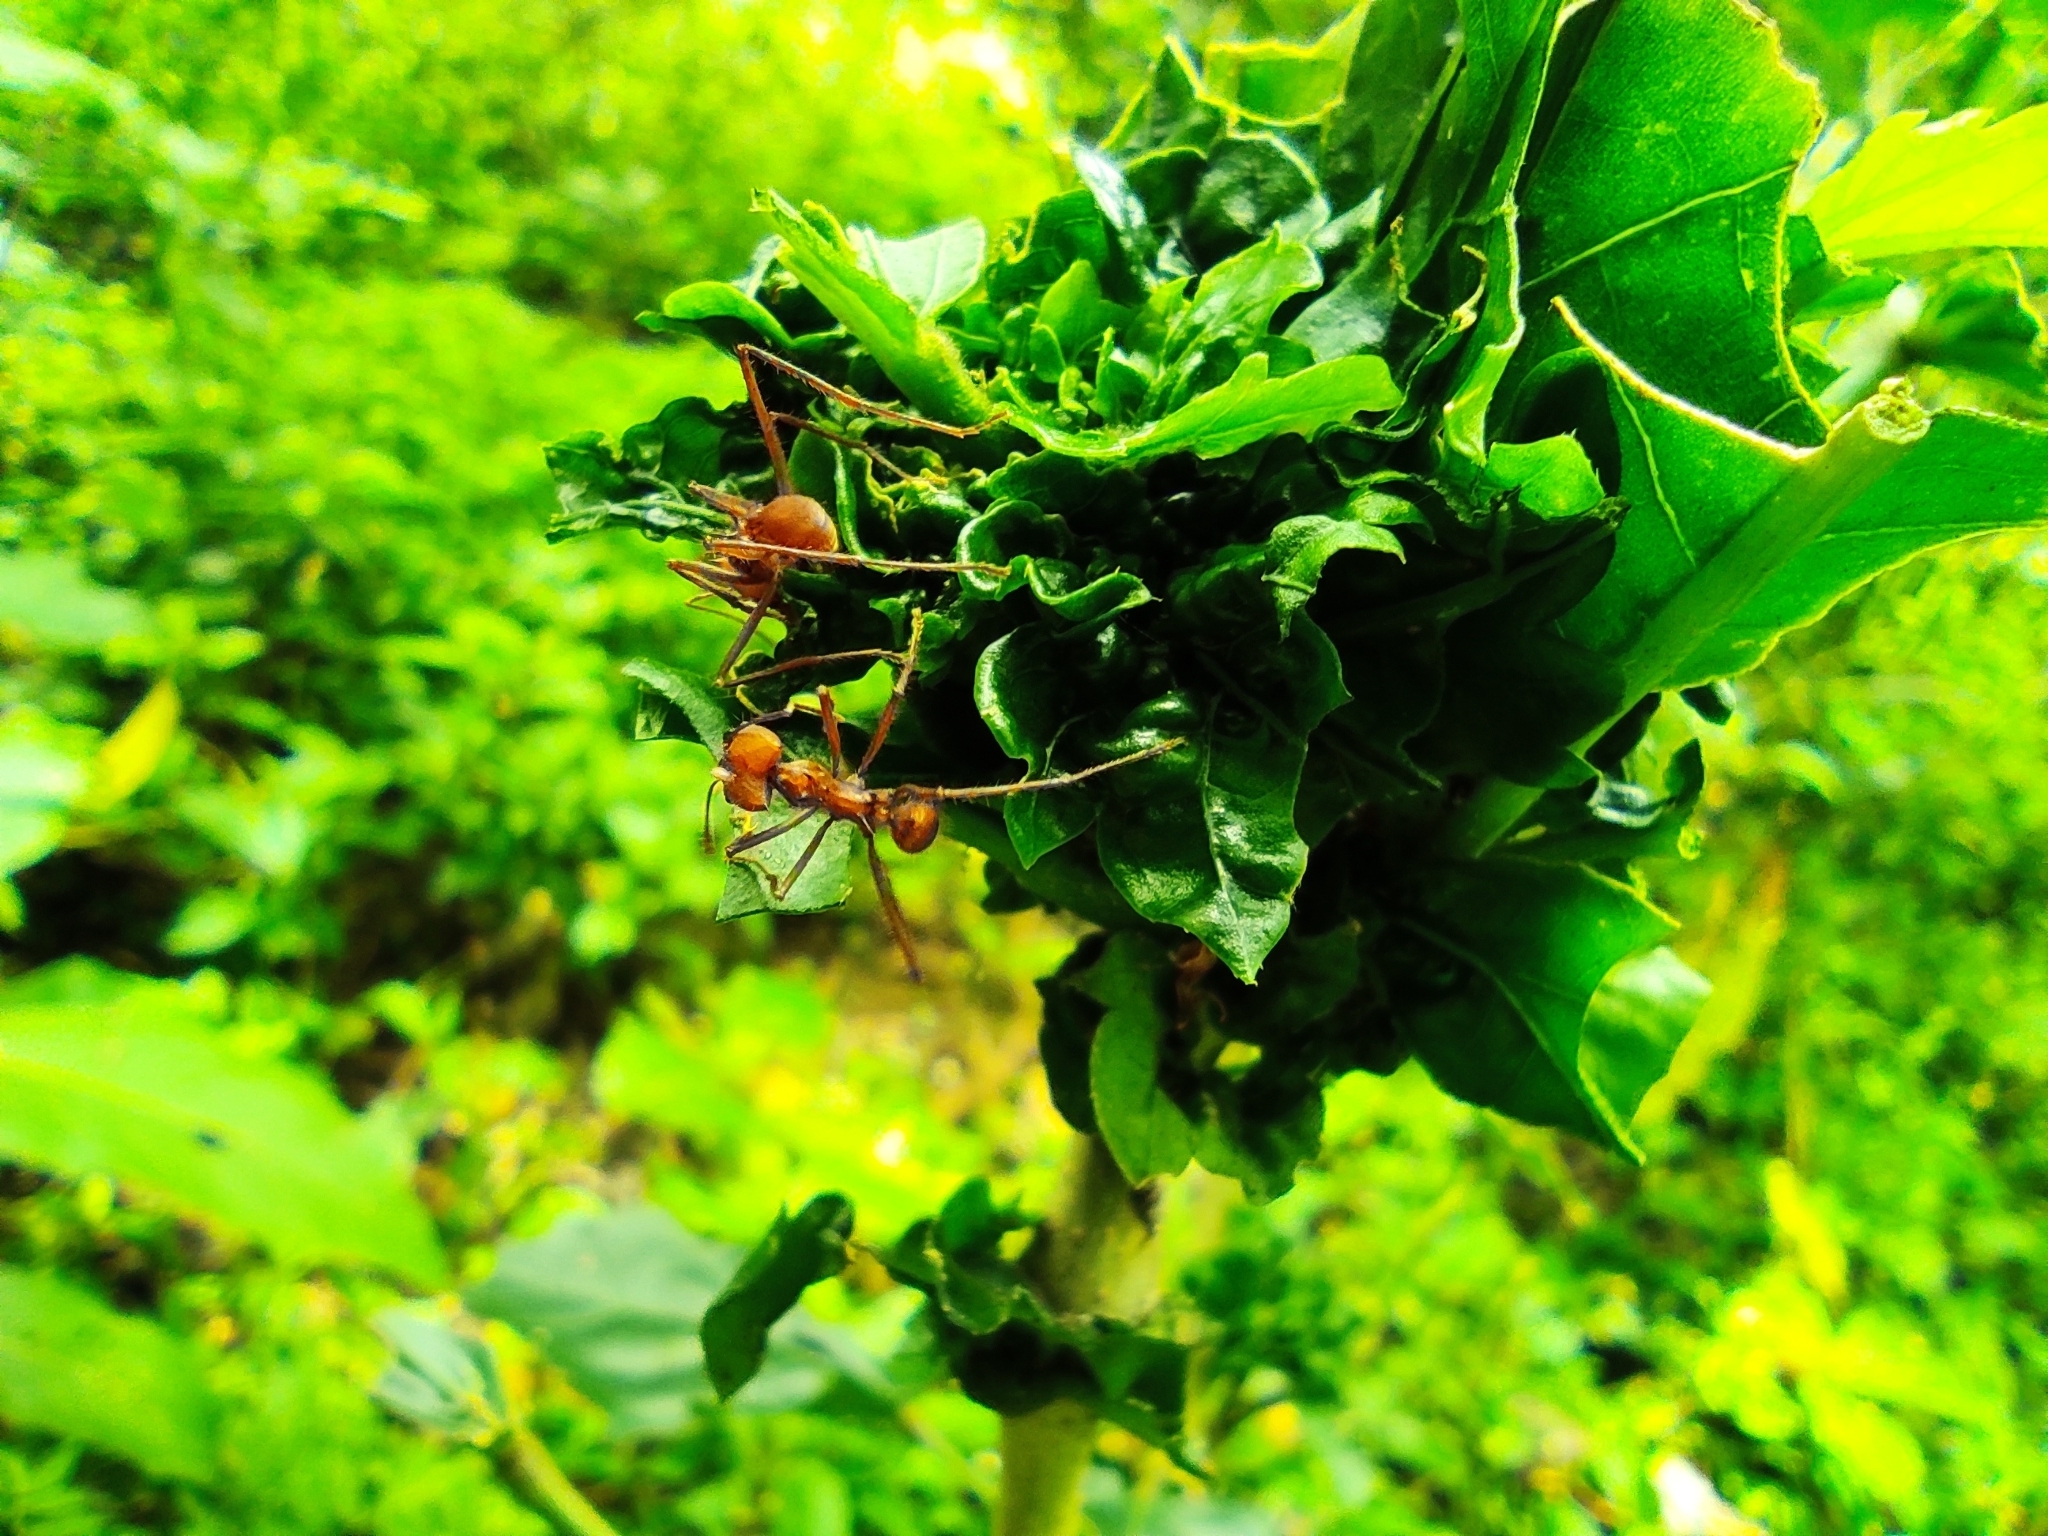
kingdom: Animalia
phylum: Arthropoda
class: Insecta
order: Hymenoptera
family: Formicidae
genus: Atta
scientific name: Atta cephalotes
